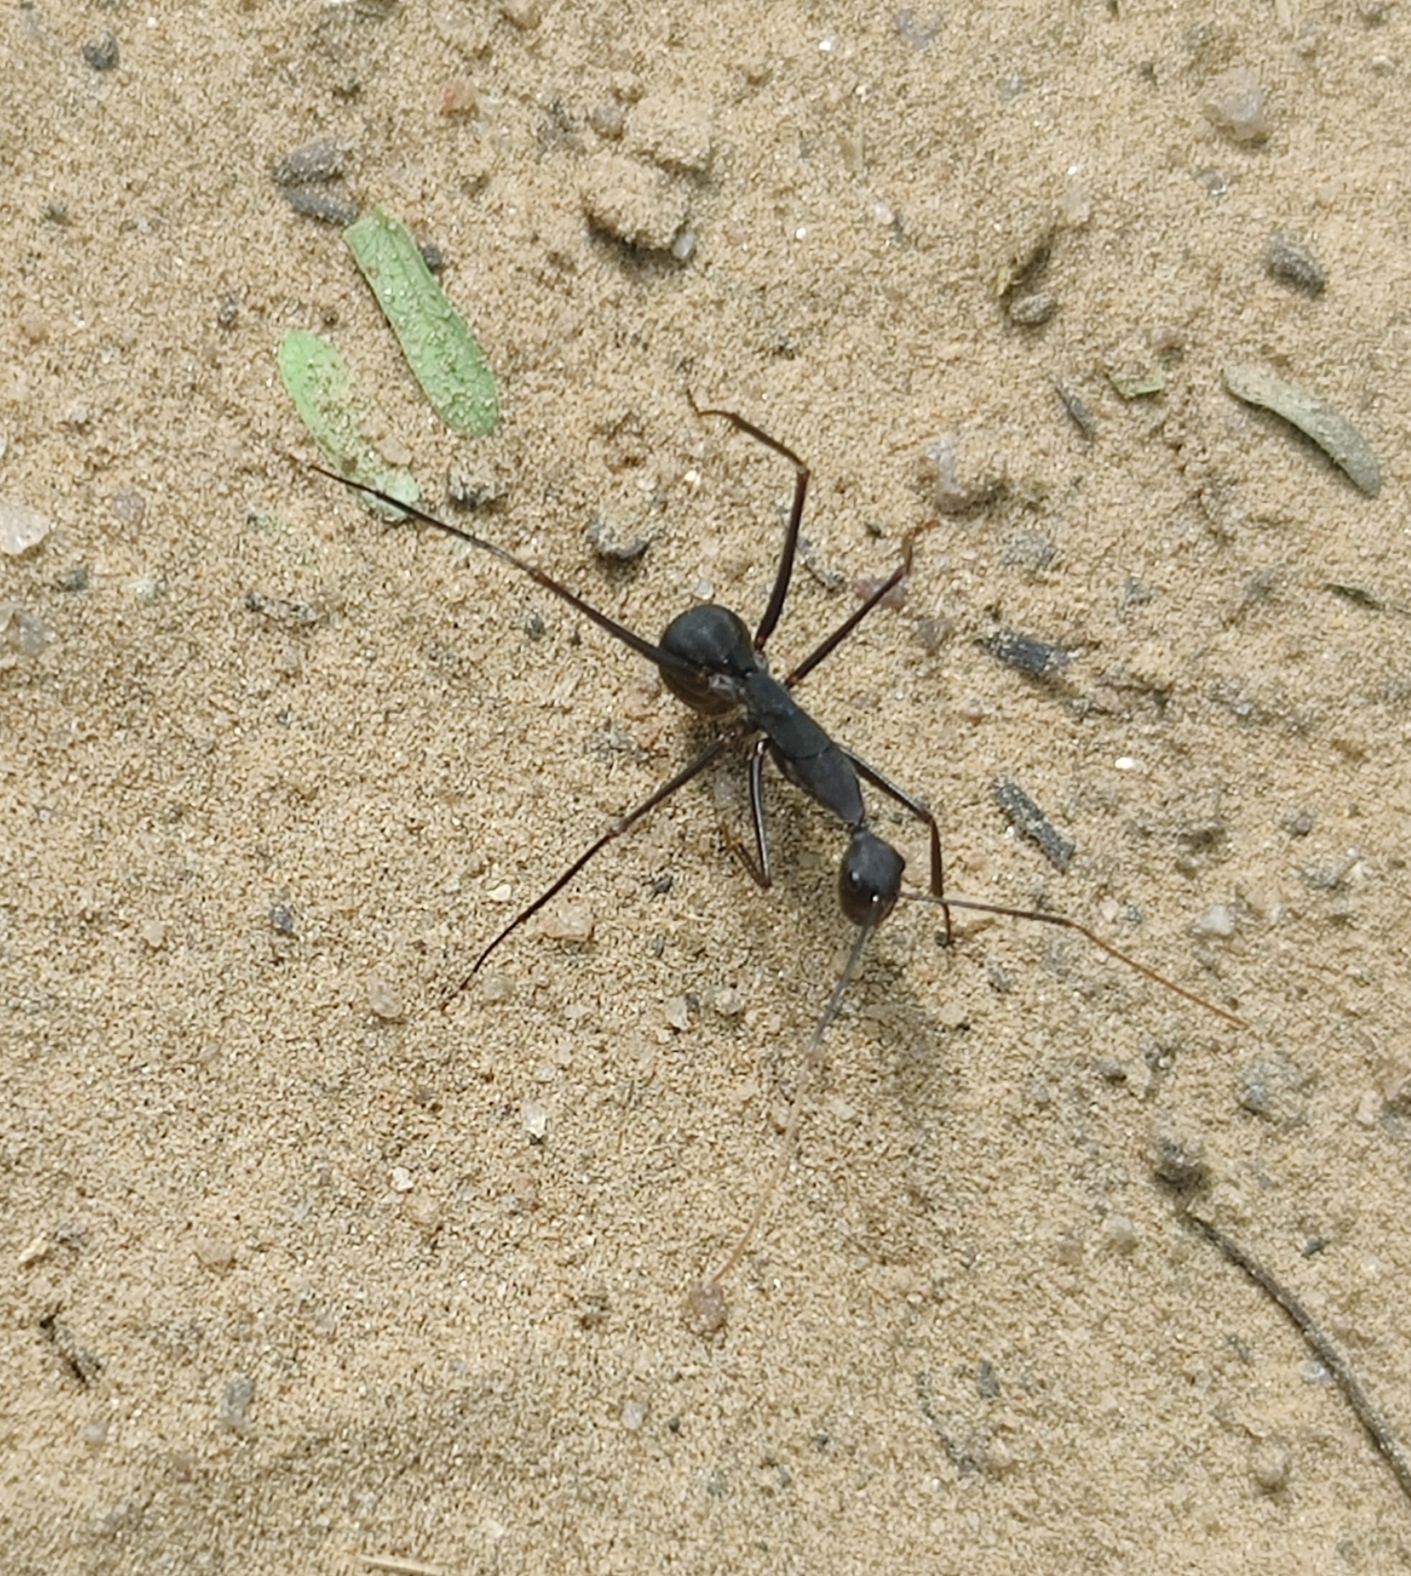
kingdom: Animalia
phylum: Arthropoda
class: Insecta
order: Hymenoptera
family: Formicidae
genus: Camponotus
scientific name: Camponotus angusticollis
